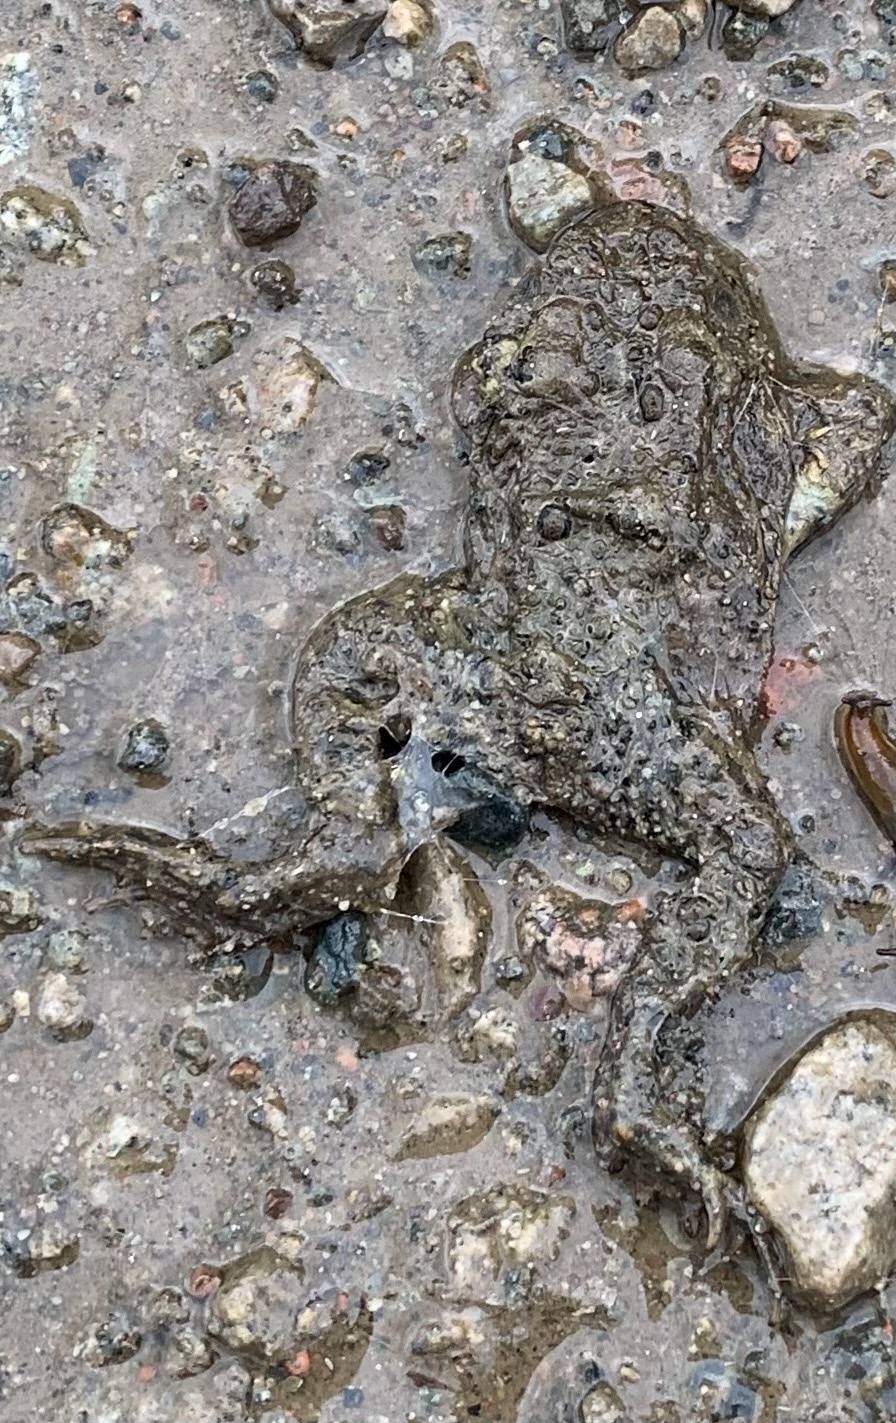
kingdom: Animalia
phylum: Chordata
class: Amphibia
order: Anura
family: Bufonidae
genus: Anaxyrus
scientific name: Anaxyrus americanus
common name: American toad
